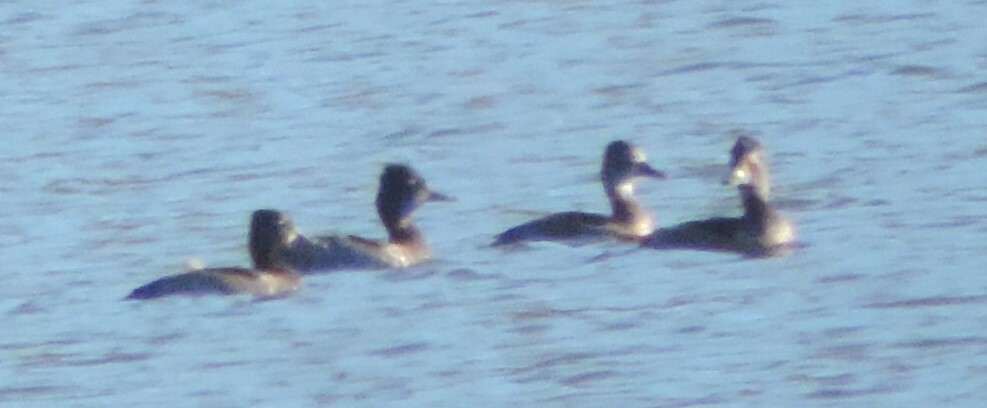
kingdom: Animalia
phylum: Chordata
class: Aves
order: Anseriformes
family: Anatidae
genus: Aythya
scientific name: Aythya collaris
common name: Ring-necked duck
